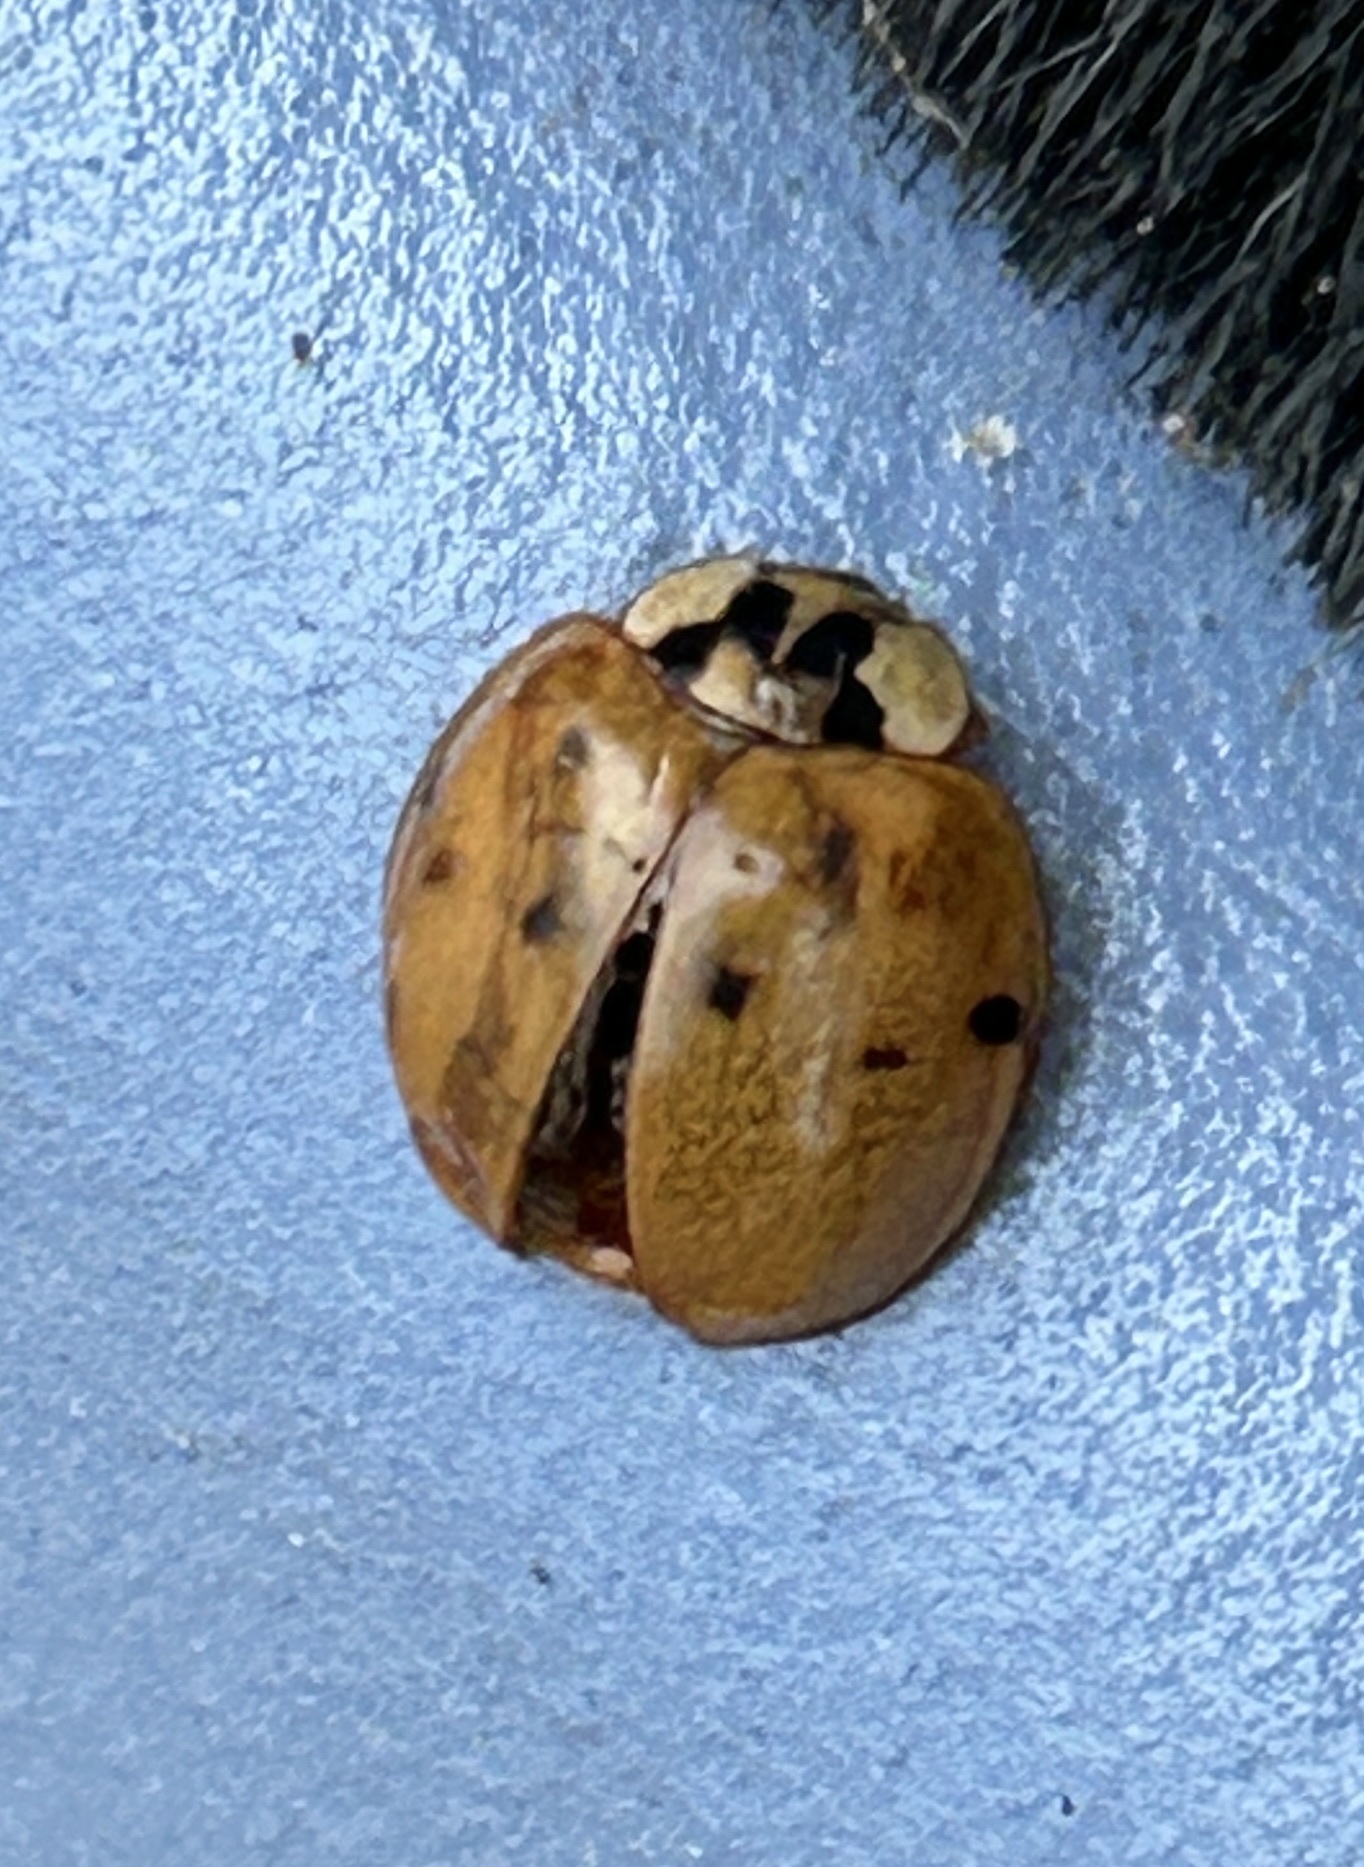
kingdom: Animalia
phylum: Arthropoda
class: Insecta
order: Coleoptera
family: Coccinellidae
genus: Harmonia
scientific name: Harmonia axyridis
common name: Harlequin ladybird
